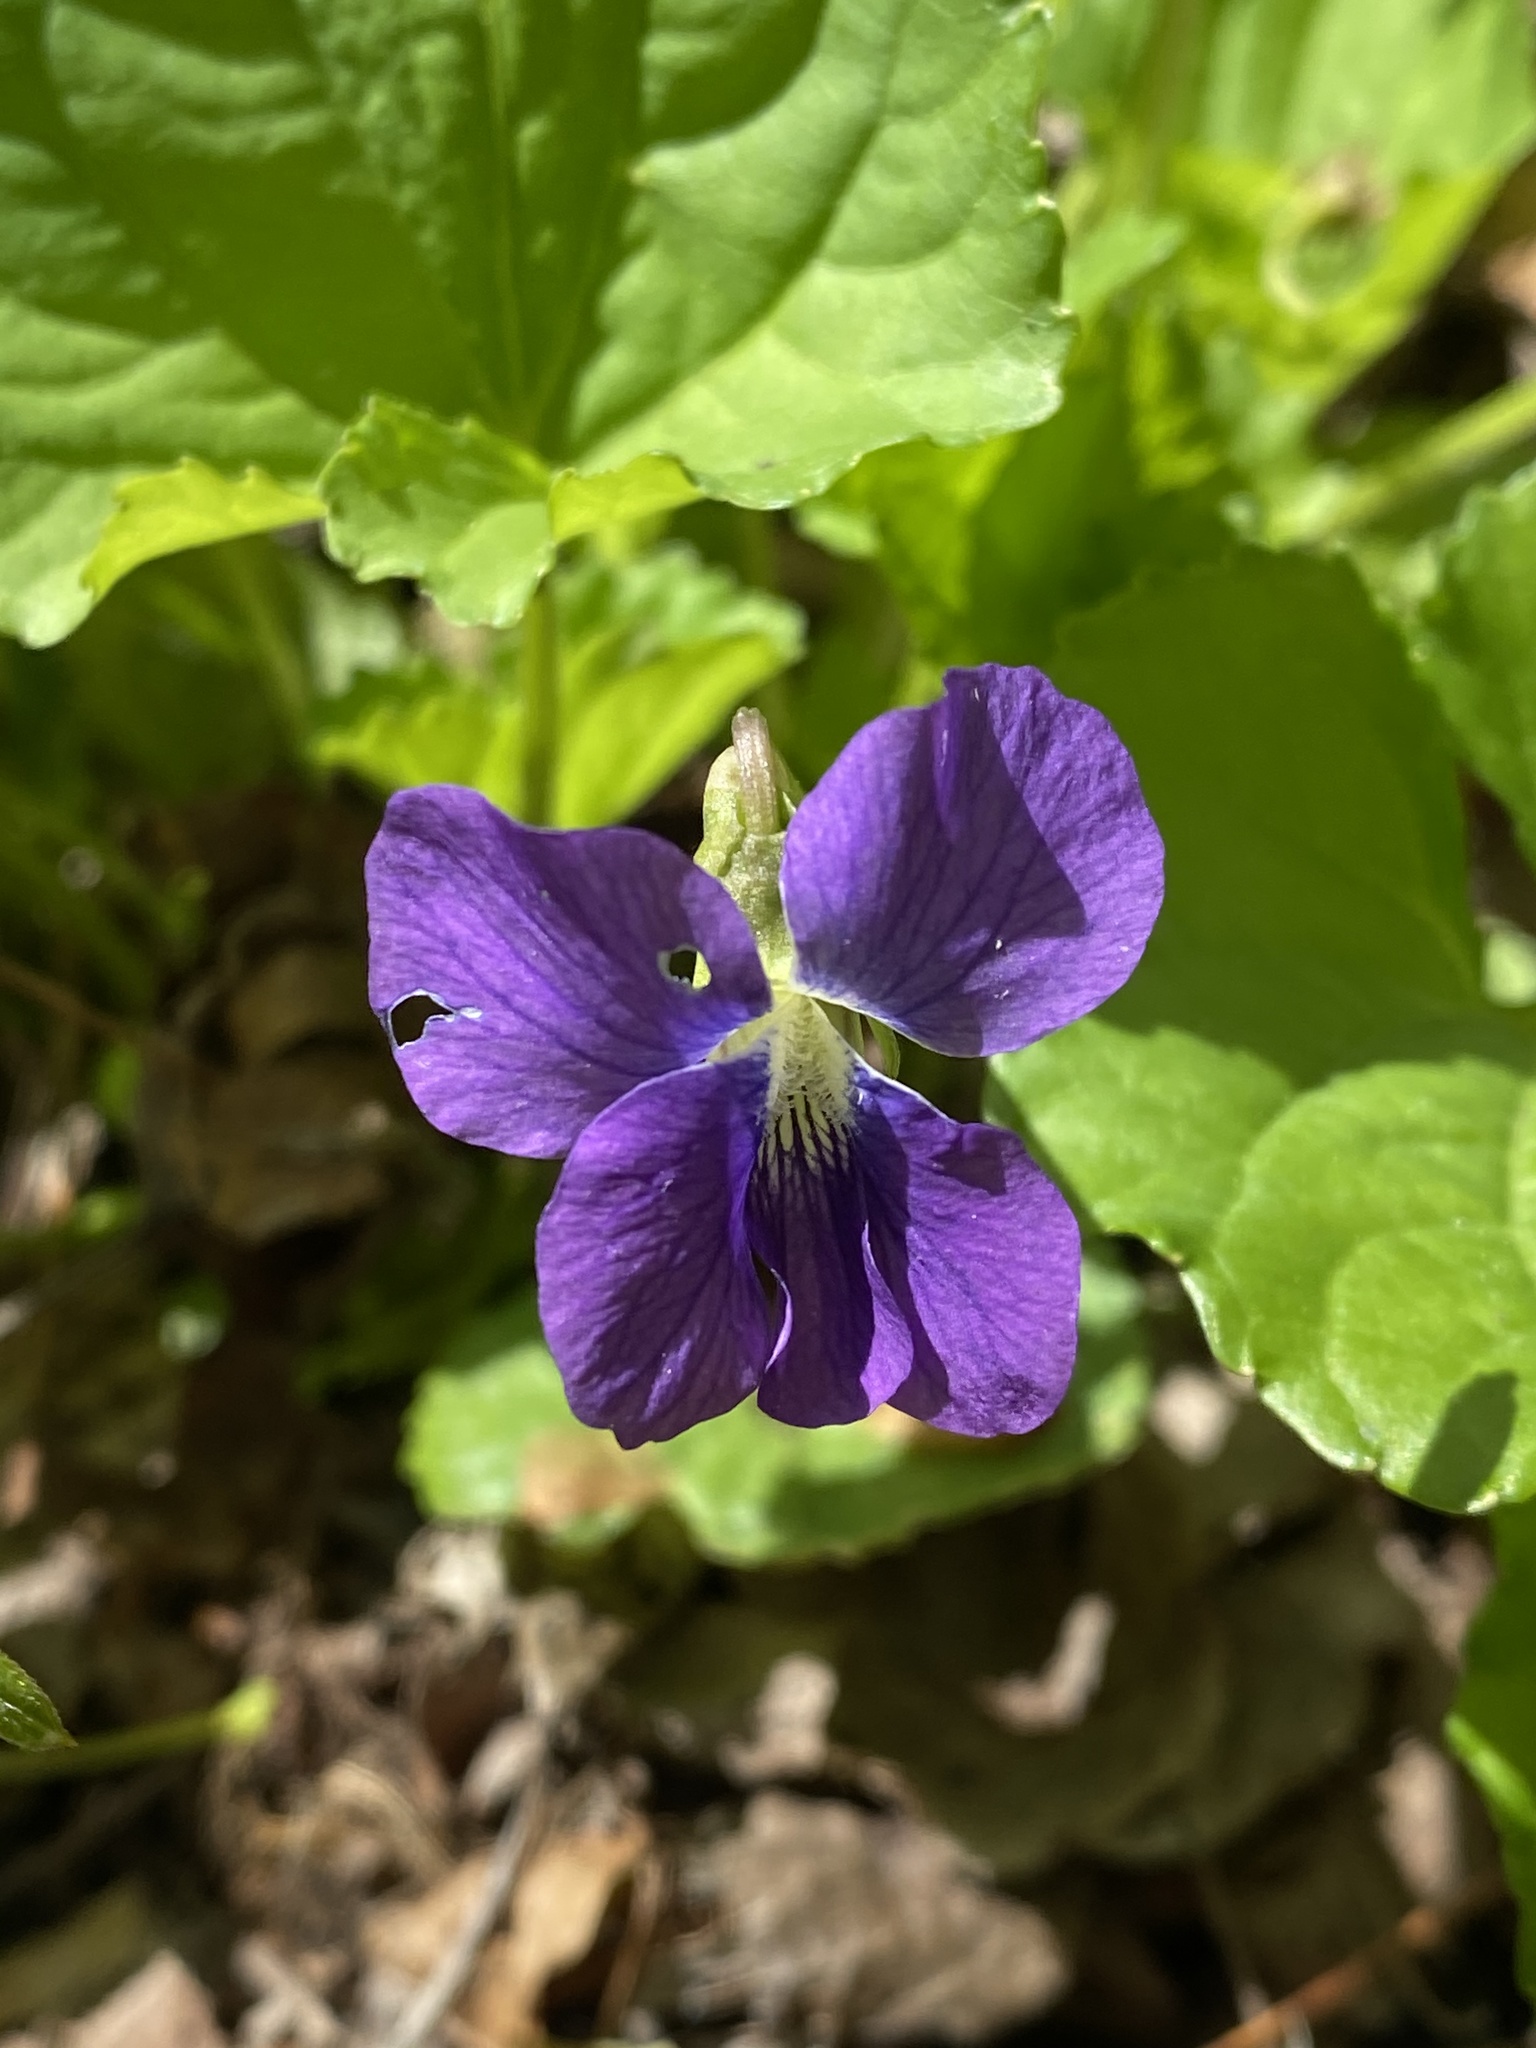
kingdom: Plantae
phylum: Tracheophyta
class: Magnoliopsida
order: Malpighiales
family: Violaceae
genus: Viola
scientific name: Viola sororia
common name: Dooryard violet
